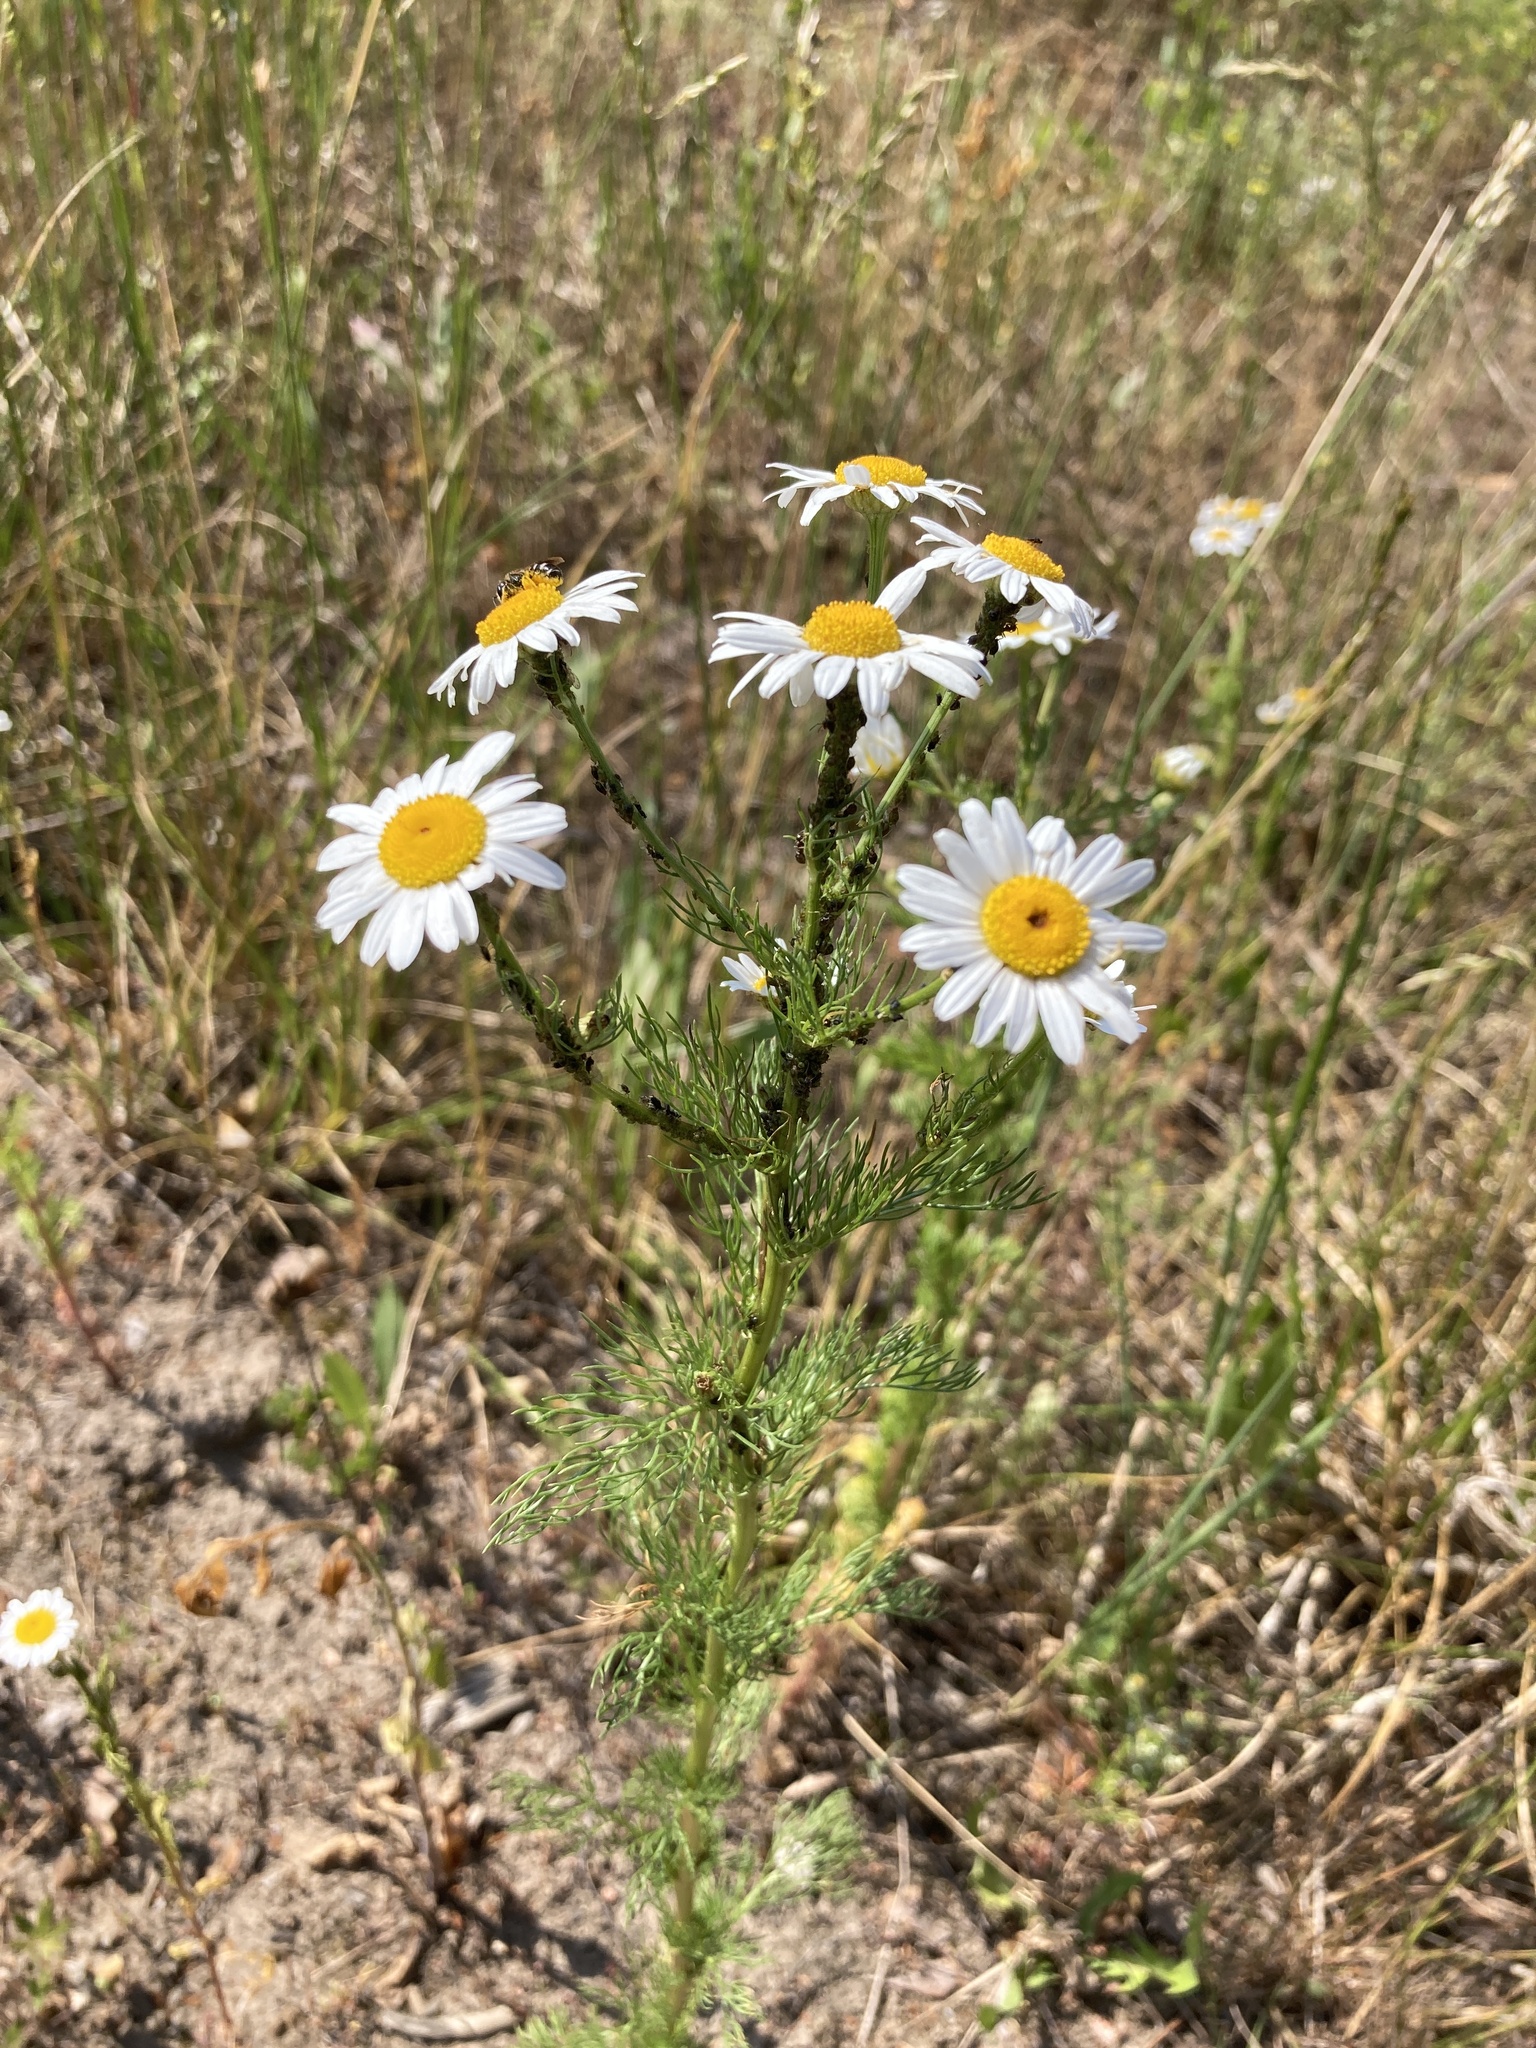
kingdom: Plantae
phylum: Tracheophyta
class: Magnoliopsida
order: Asterales
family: Asteraceae
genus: Tripleurospermum
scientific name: Tripleurospermum inodorum
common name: Scentless mayweed
